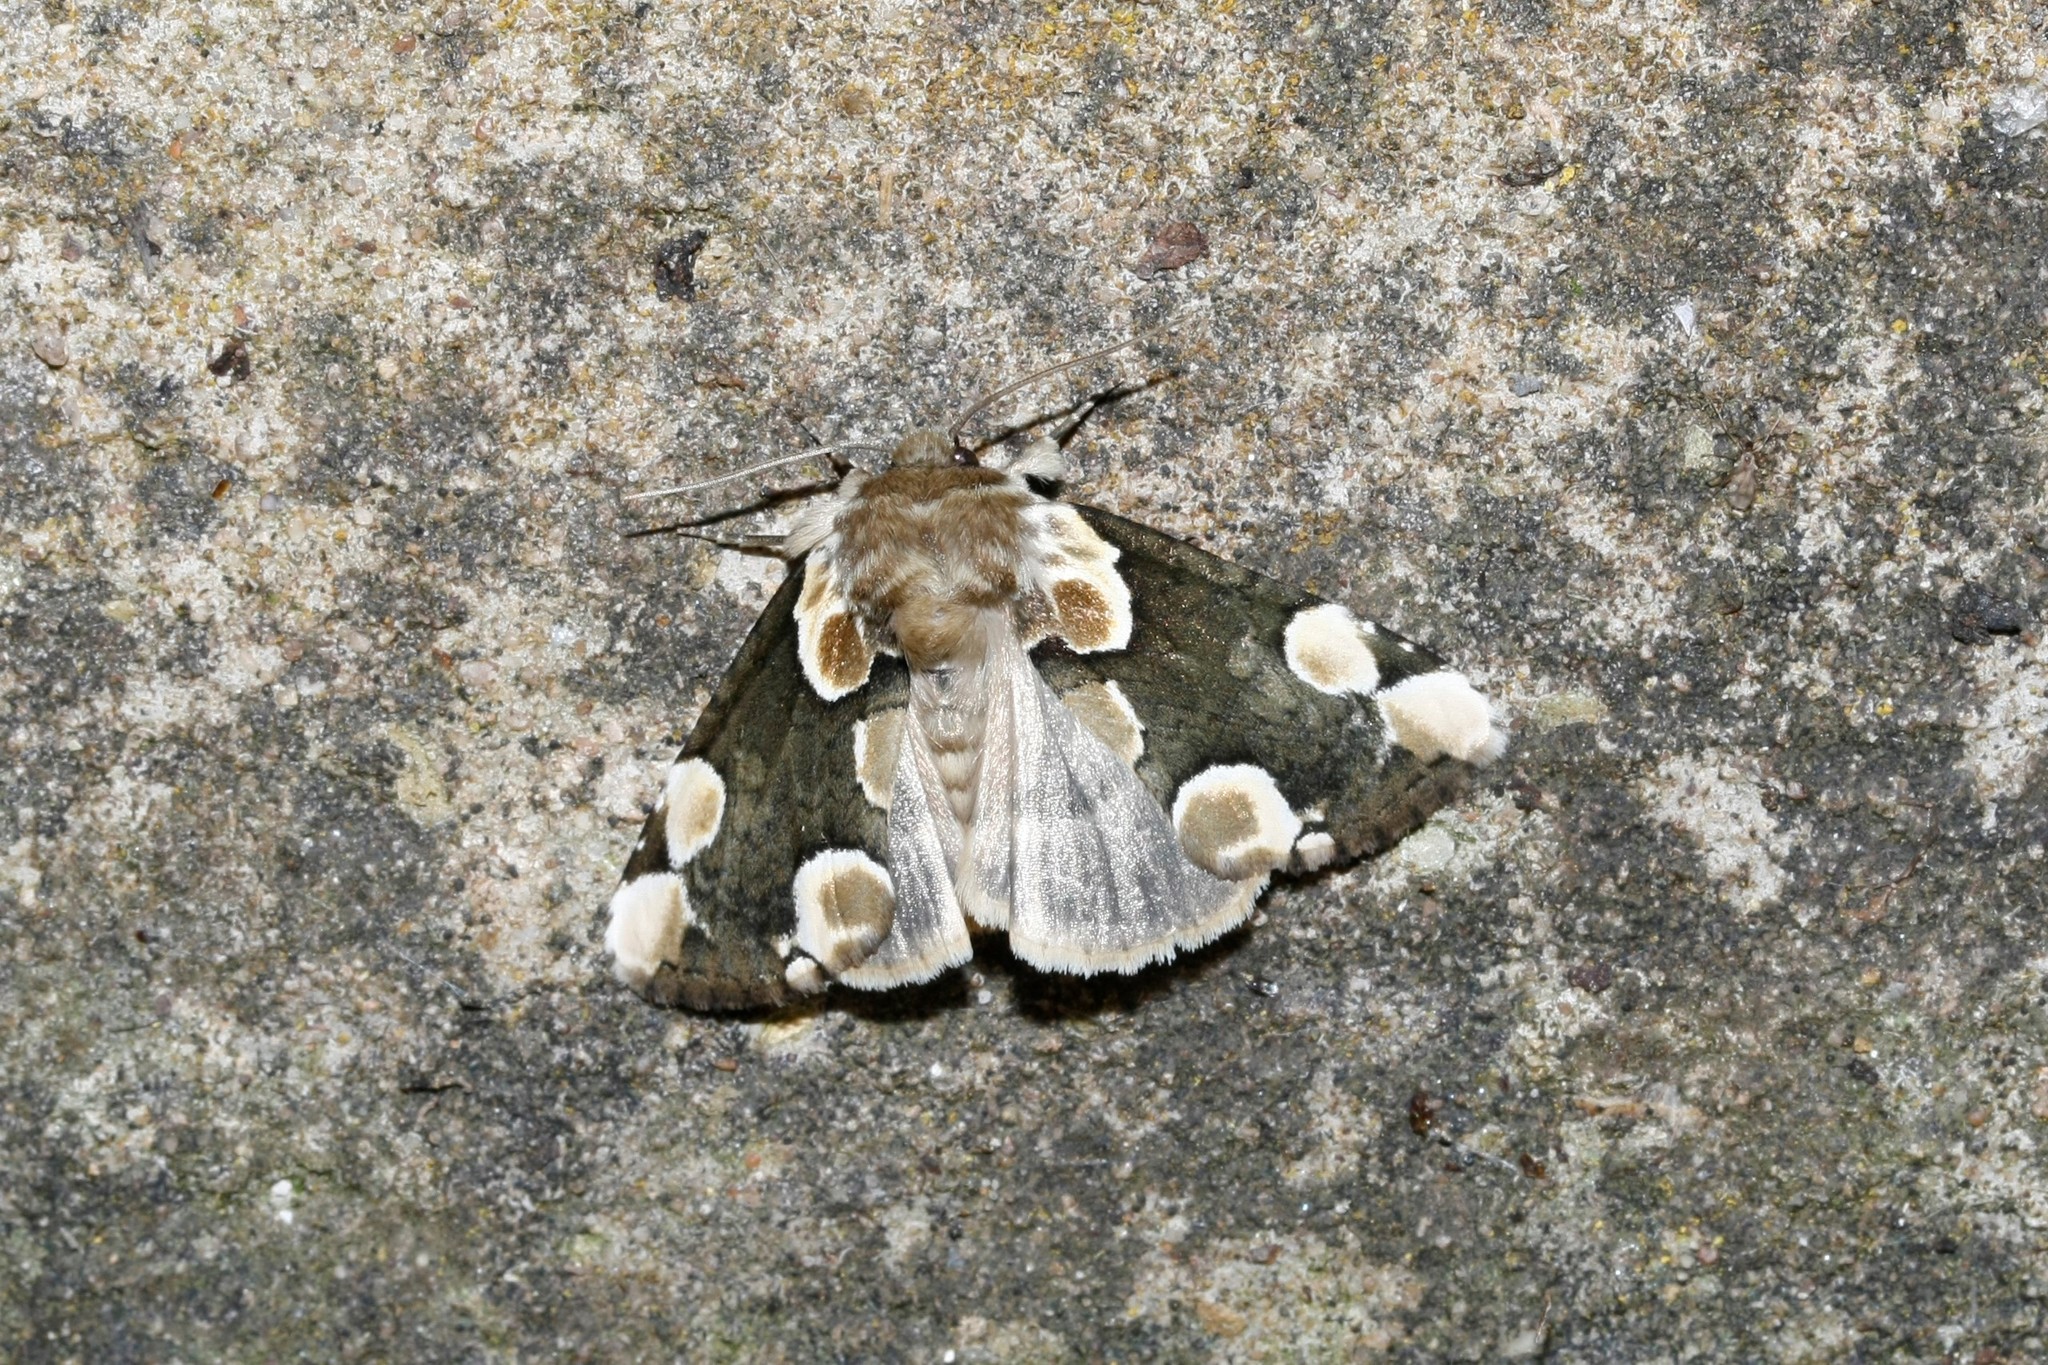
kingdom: Animalia
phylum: Arthropoda
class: Insecta
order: Lepidoptera
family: Drepanidae
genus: Thyatira
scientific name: Thyatira batis
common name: Peach blossom
